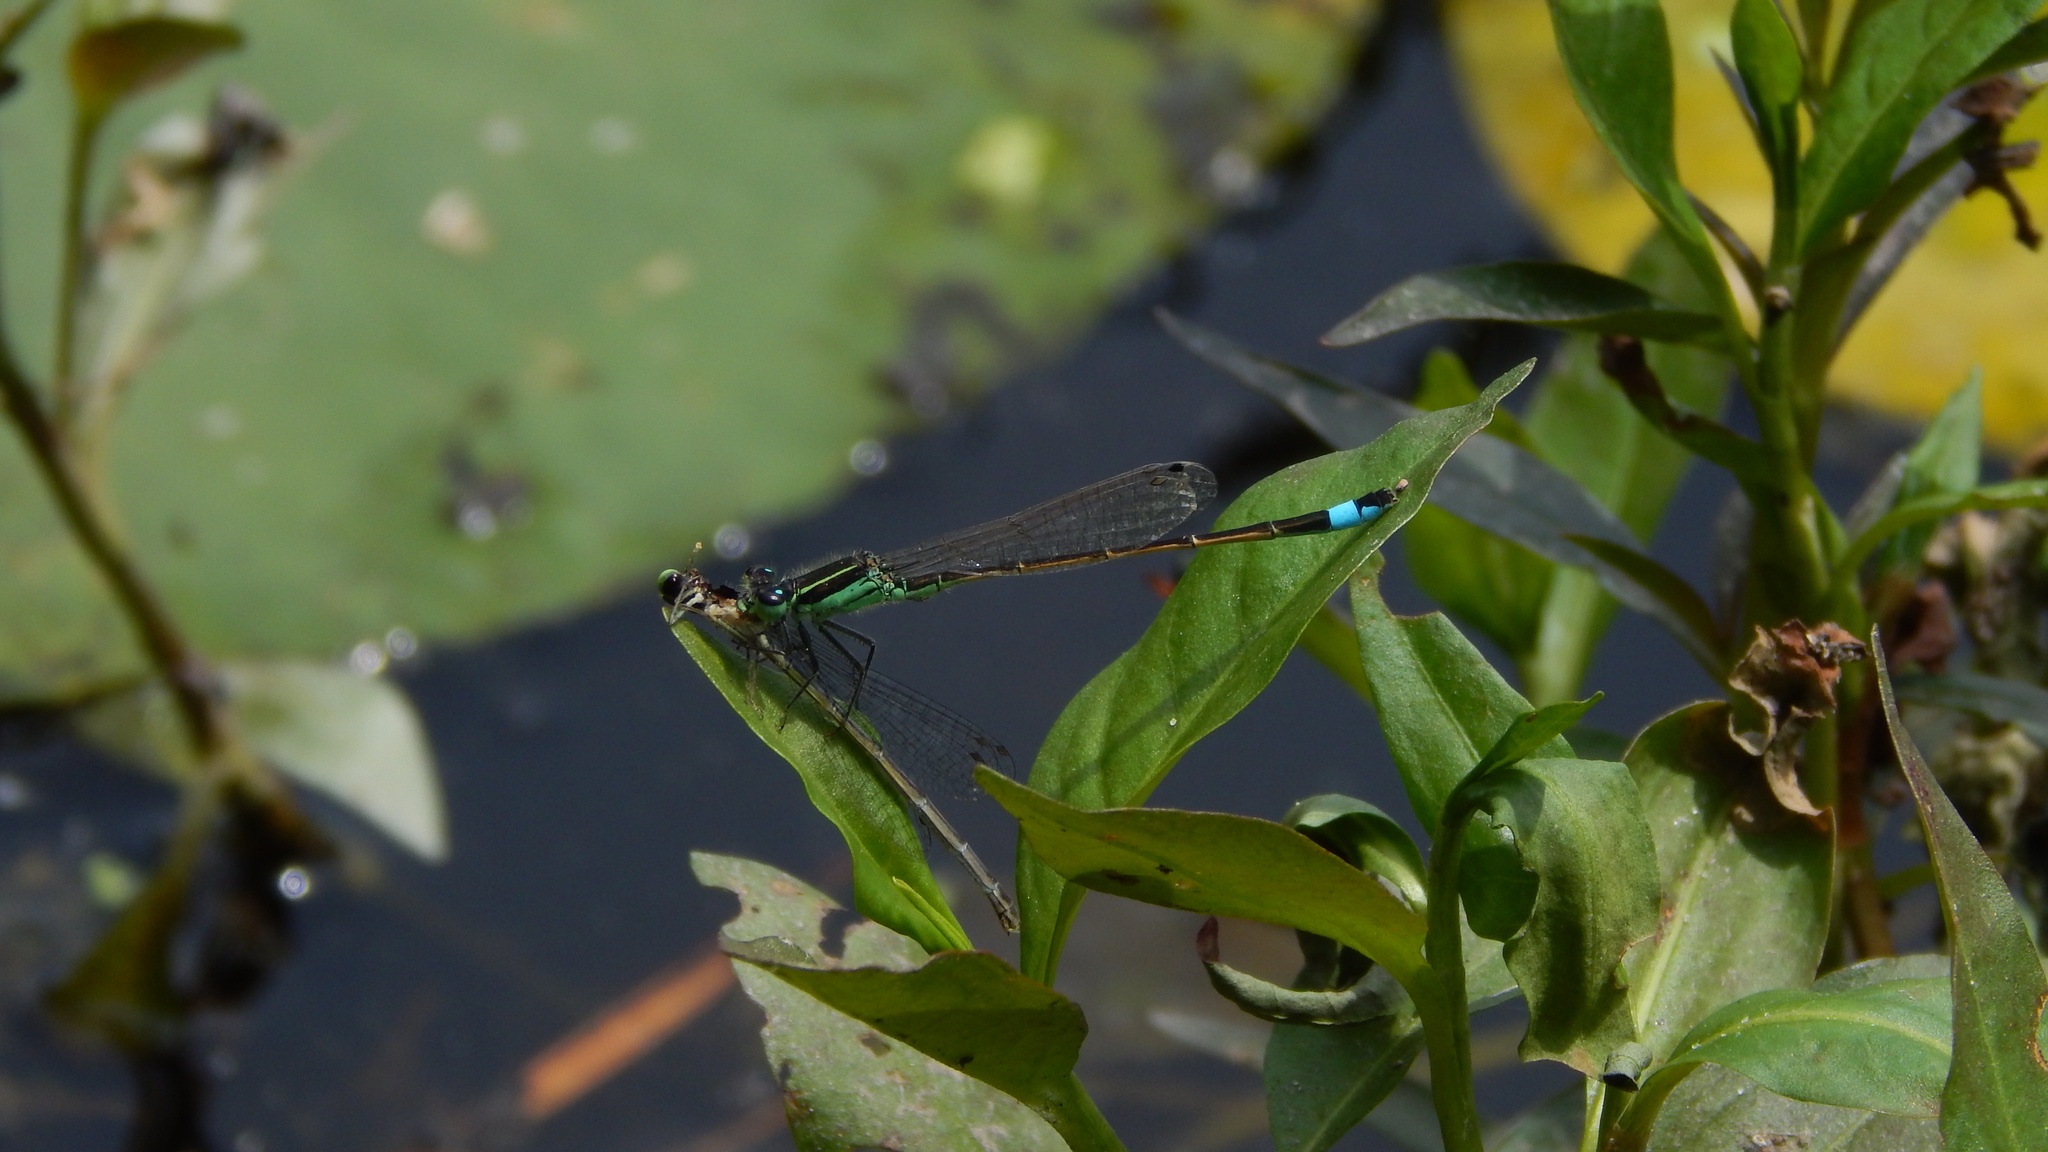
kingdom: Animalia
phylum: Arthropoda
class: Insecta
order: Odonata
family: Coenagrionidae
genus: Ischnura
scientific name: Ischnura ramburii
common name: Rambur's forktail
